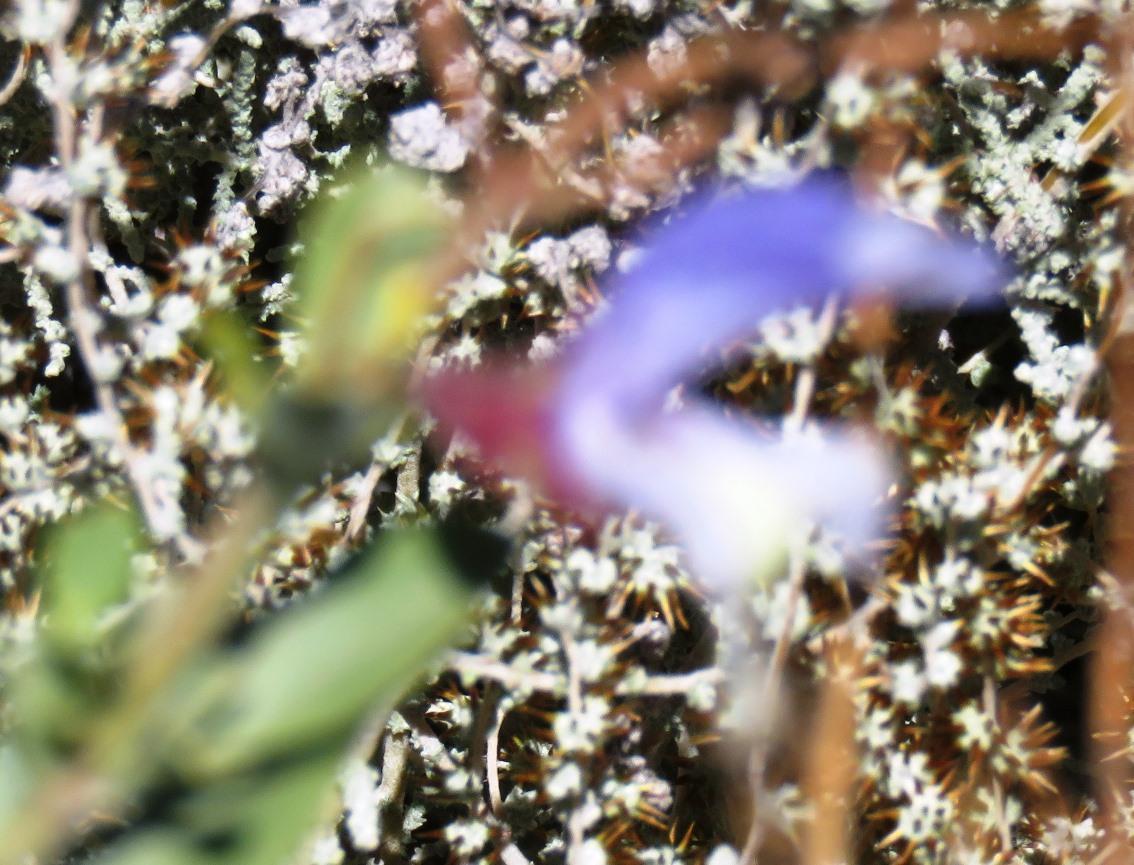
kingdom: Plantae
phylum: Tracheophyta
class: Magnoliopsida
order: Lamiales
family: Lamiaceae
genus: Salvia
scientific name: Salvia africana
